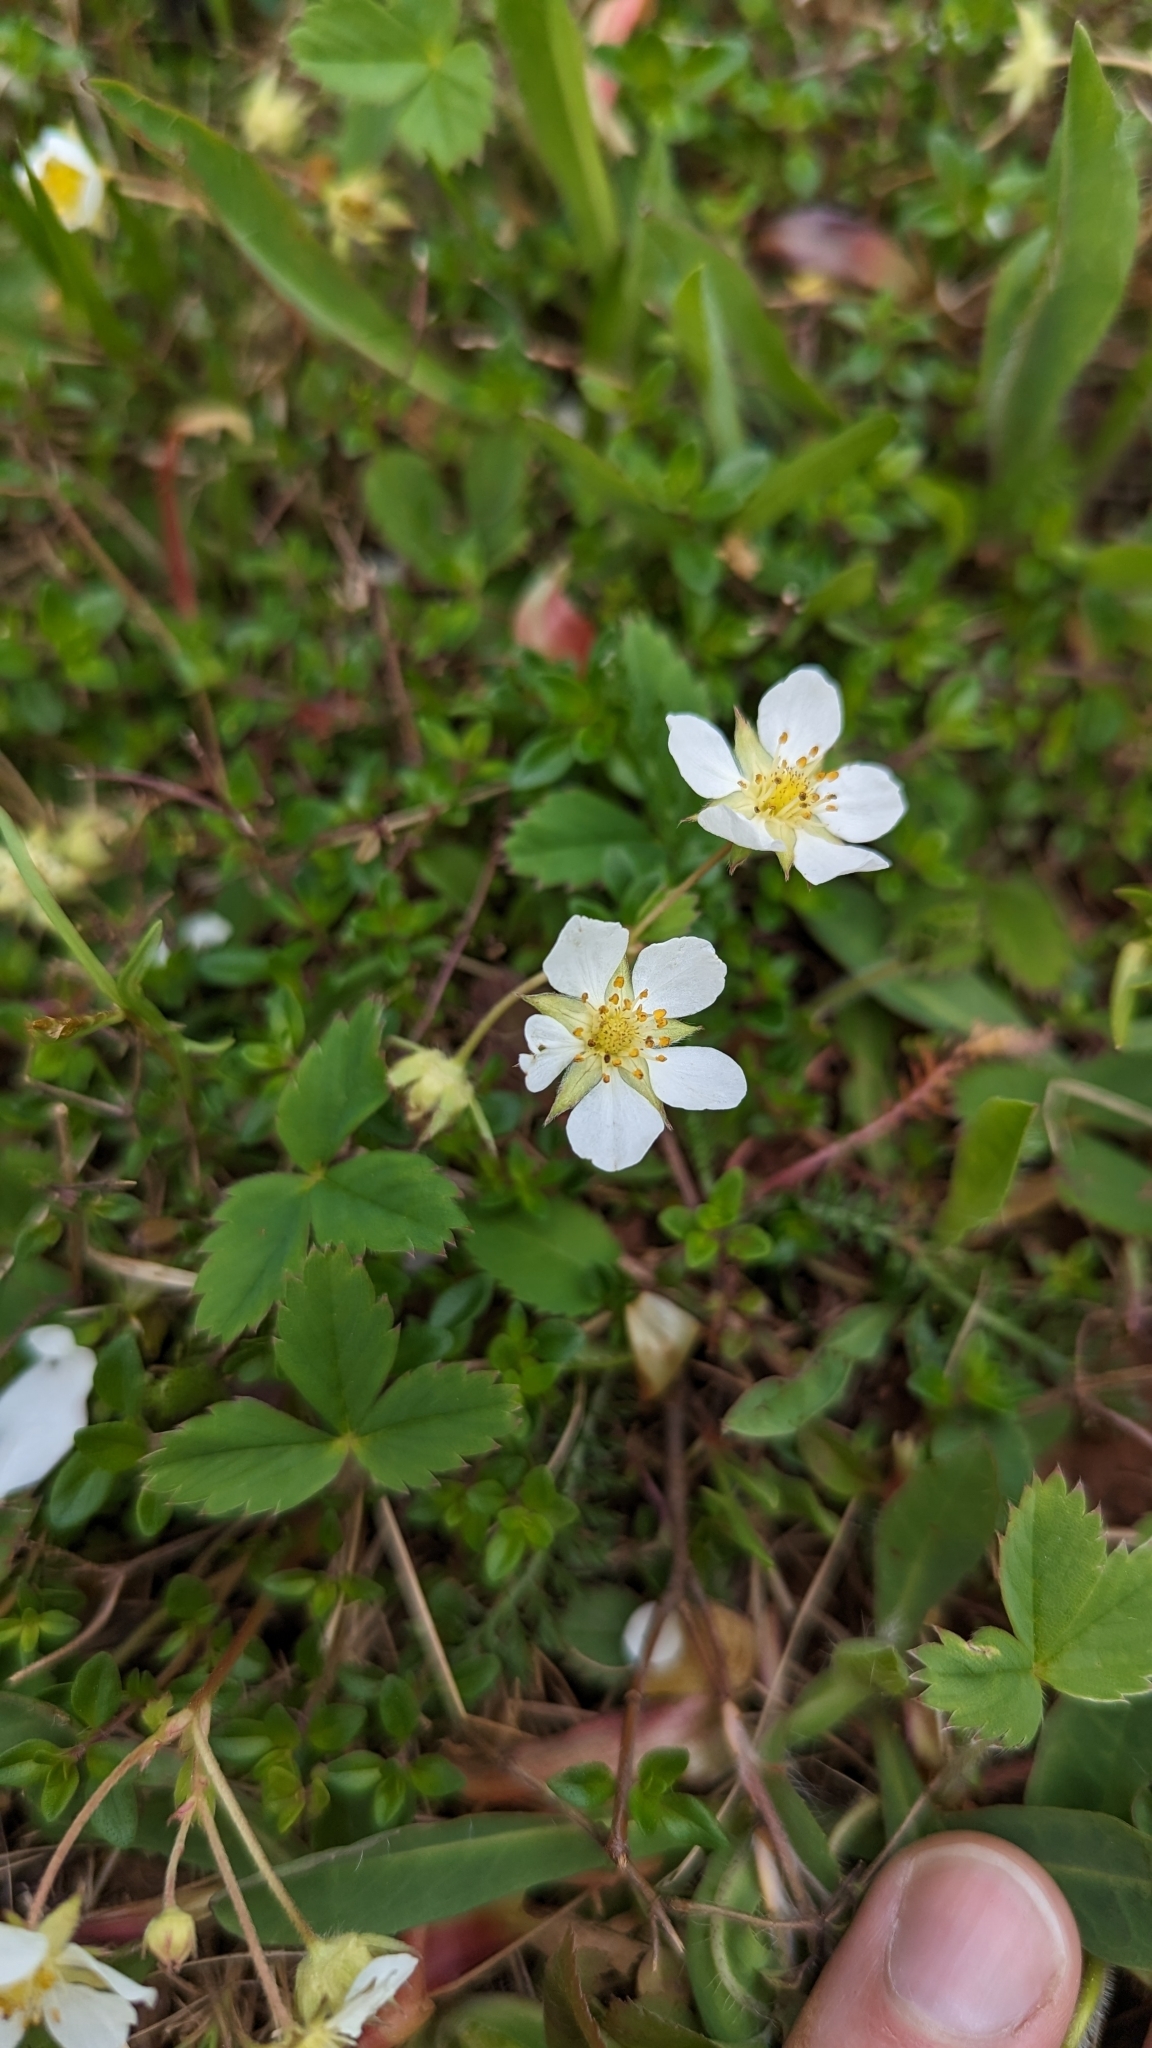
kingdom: Plantae
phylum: Tracheophyta
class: Magnoliopsida
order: Rosales
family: Rosaceae
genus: Fragaria
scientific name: Fragaria virginiana
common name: Thickleaved wild strawberry
